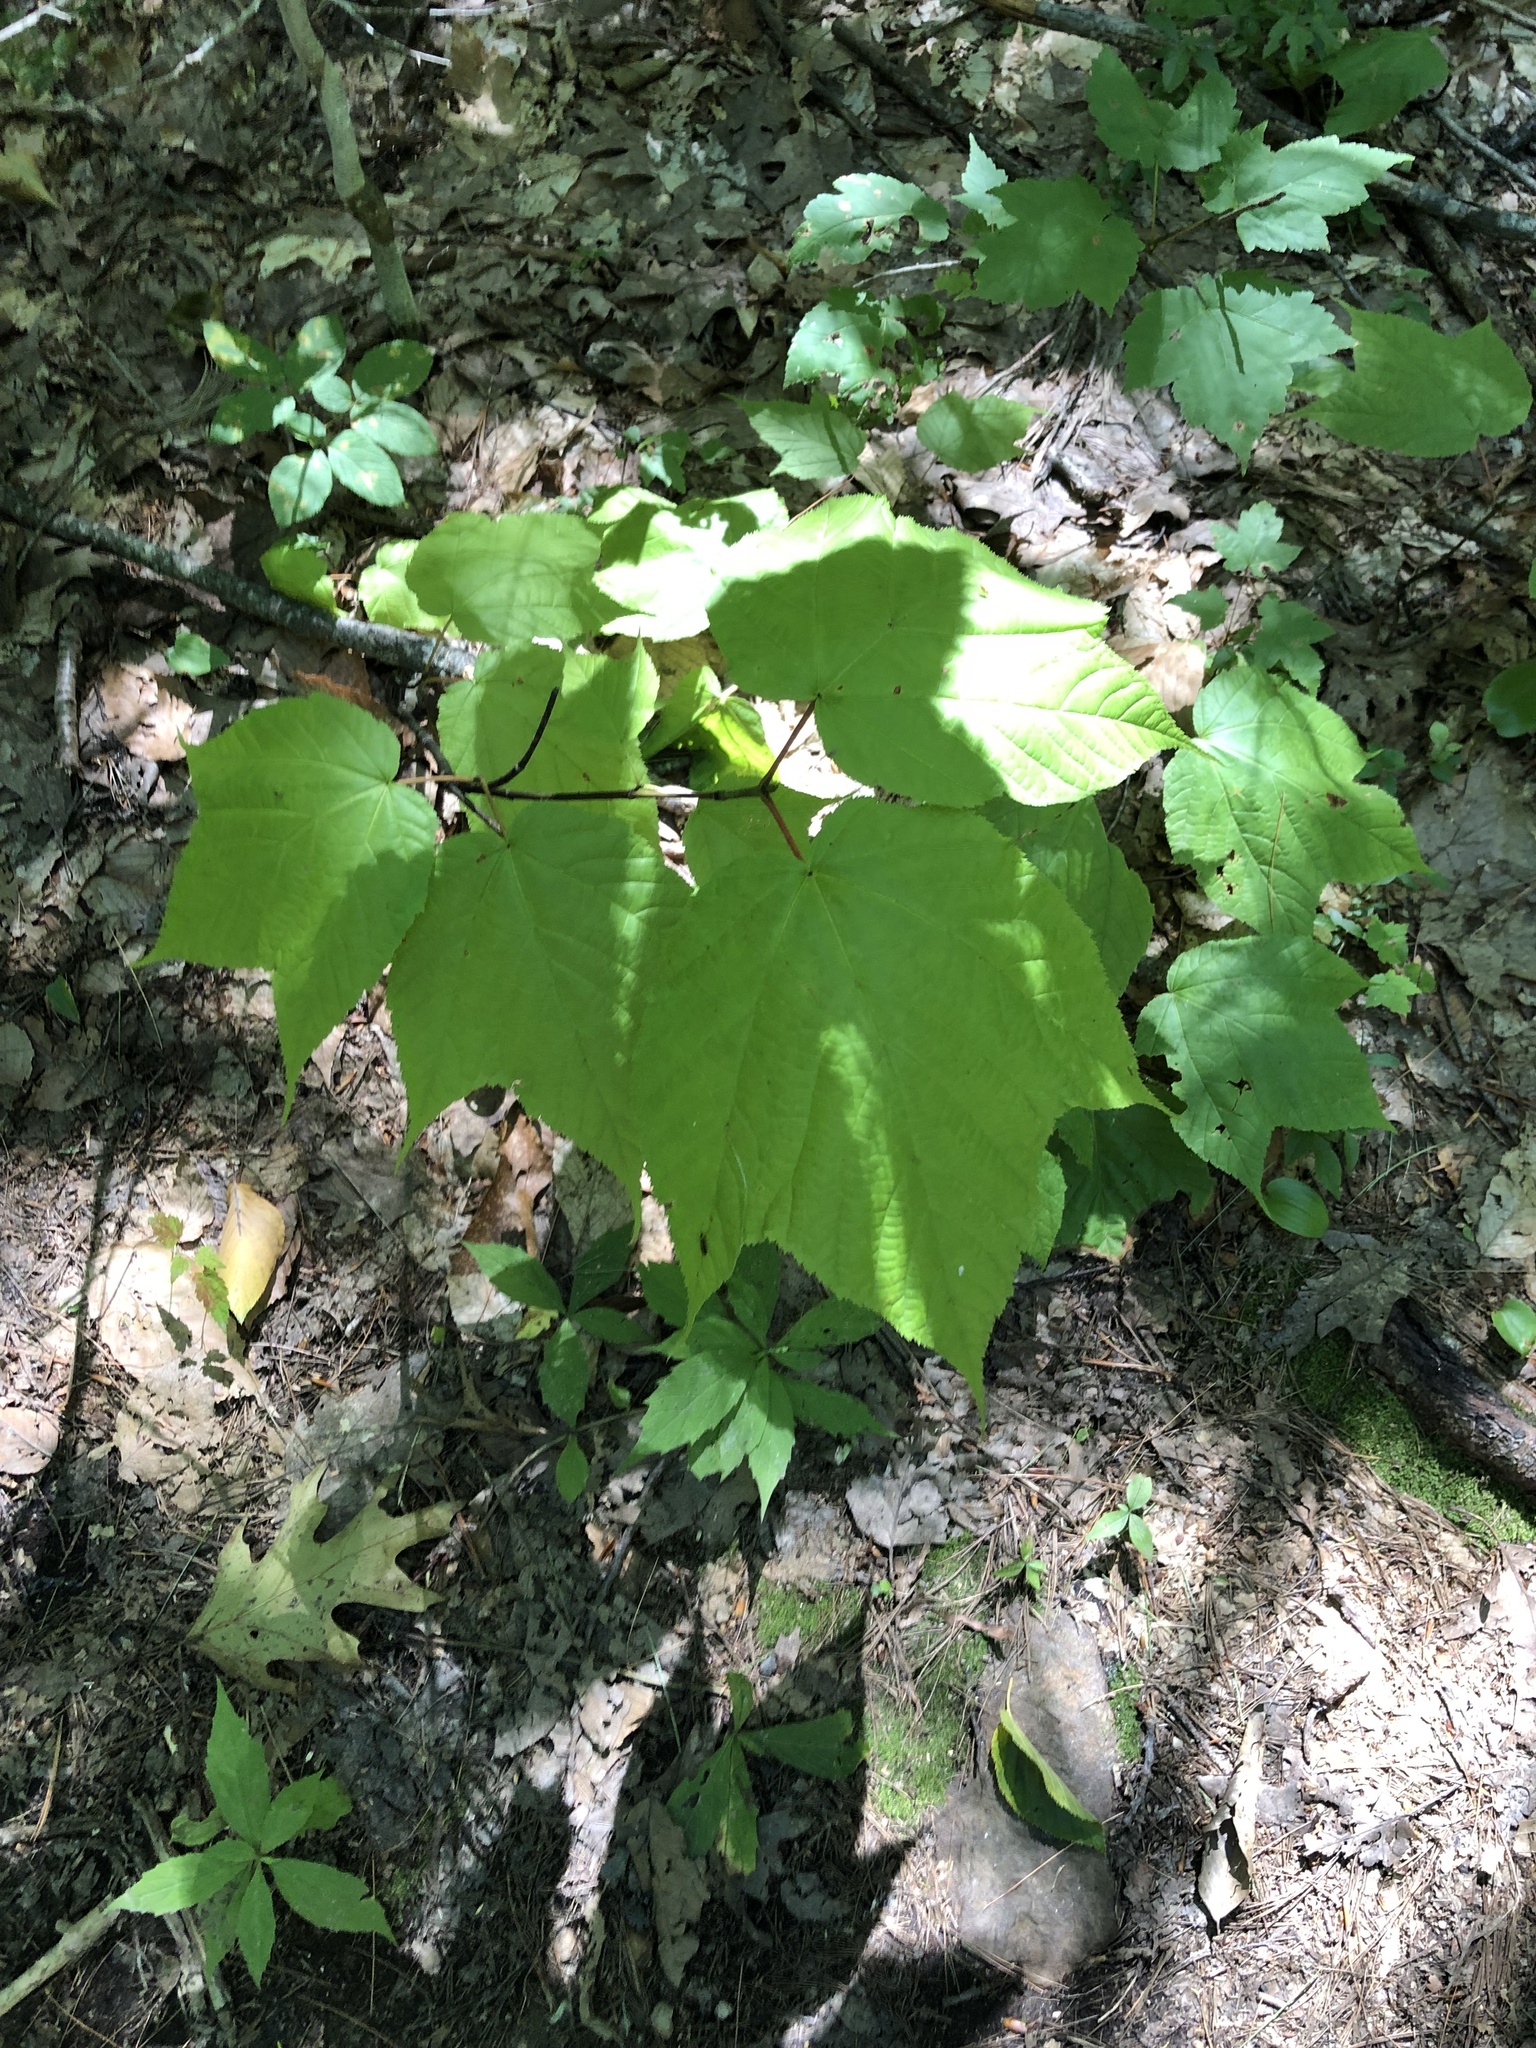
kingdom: Plantae
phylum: Tracheophyta
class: Magnoliopsida
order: Sapindales
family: Sapindaceae
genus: Acer
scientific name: Acer pensylvanicum
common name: Moosewood
